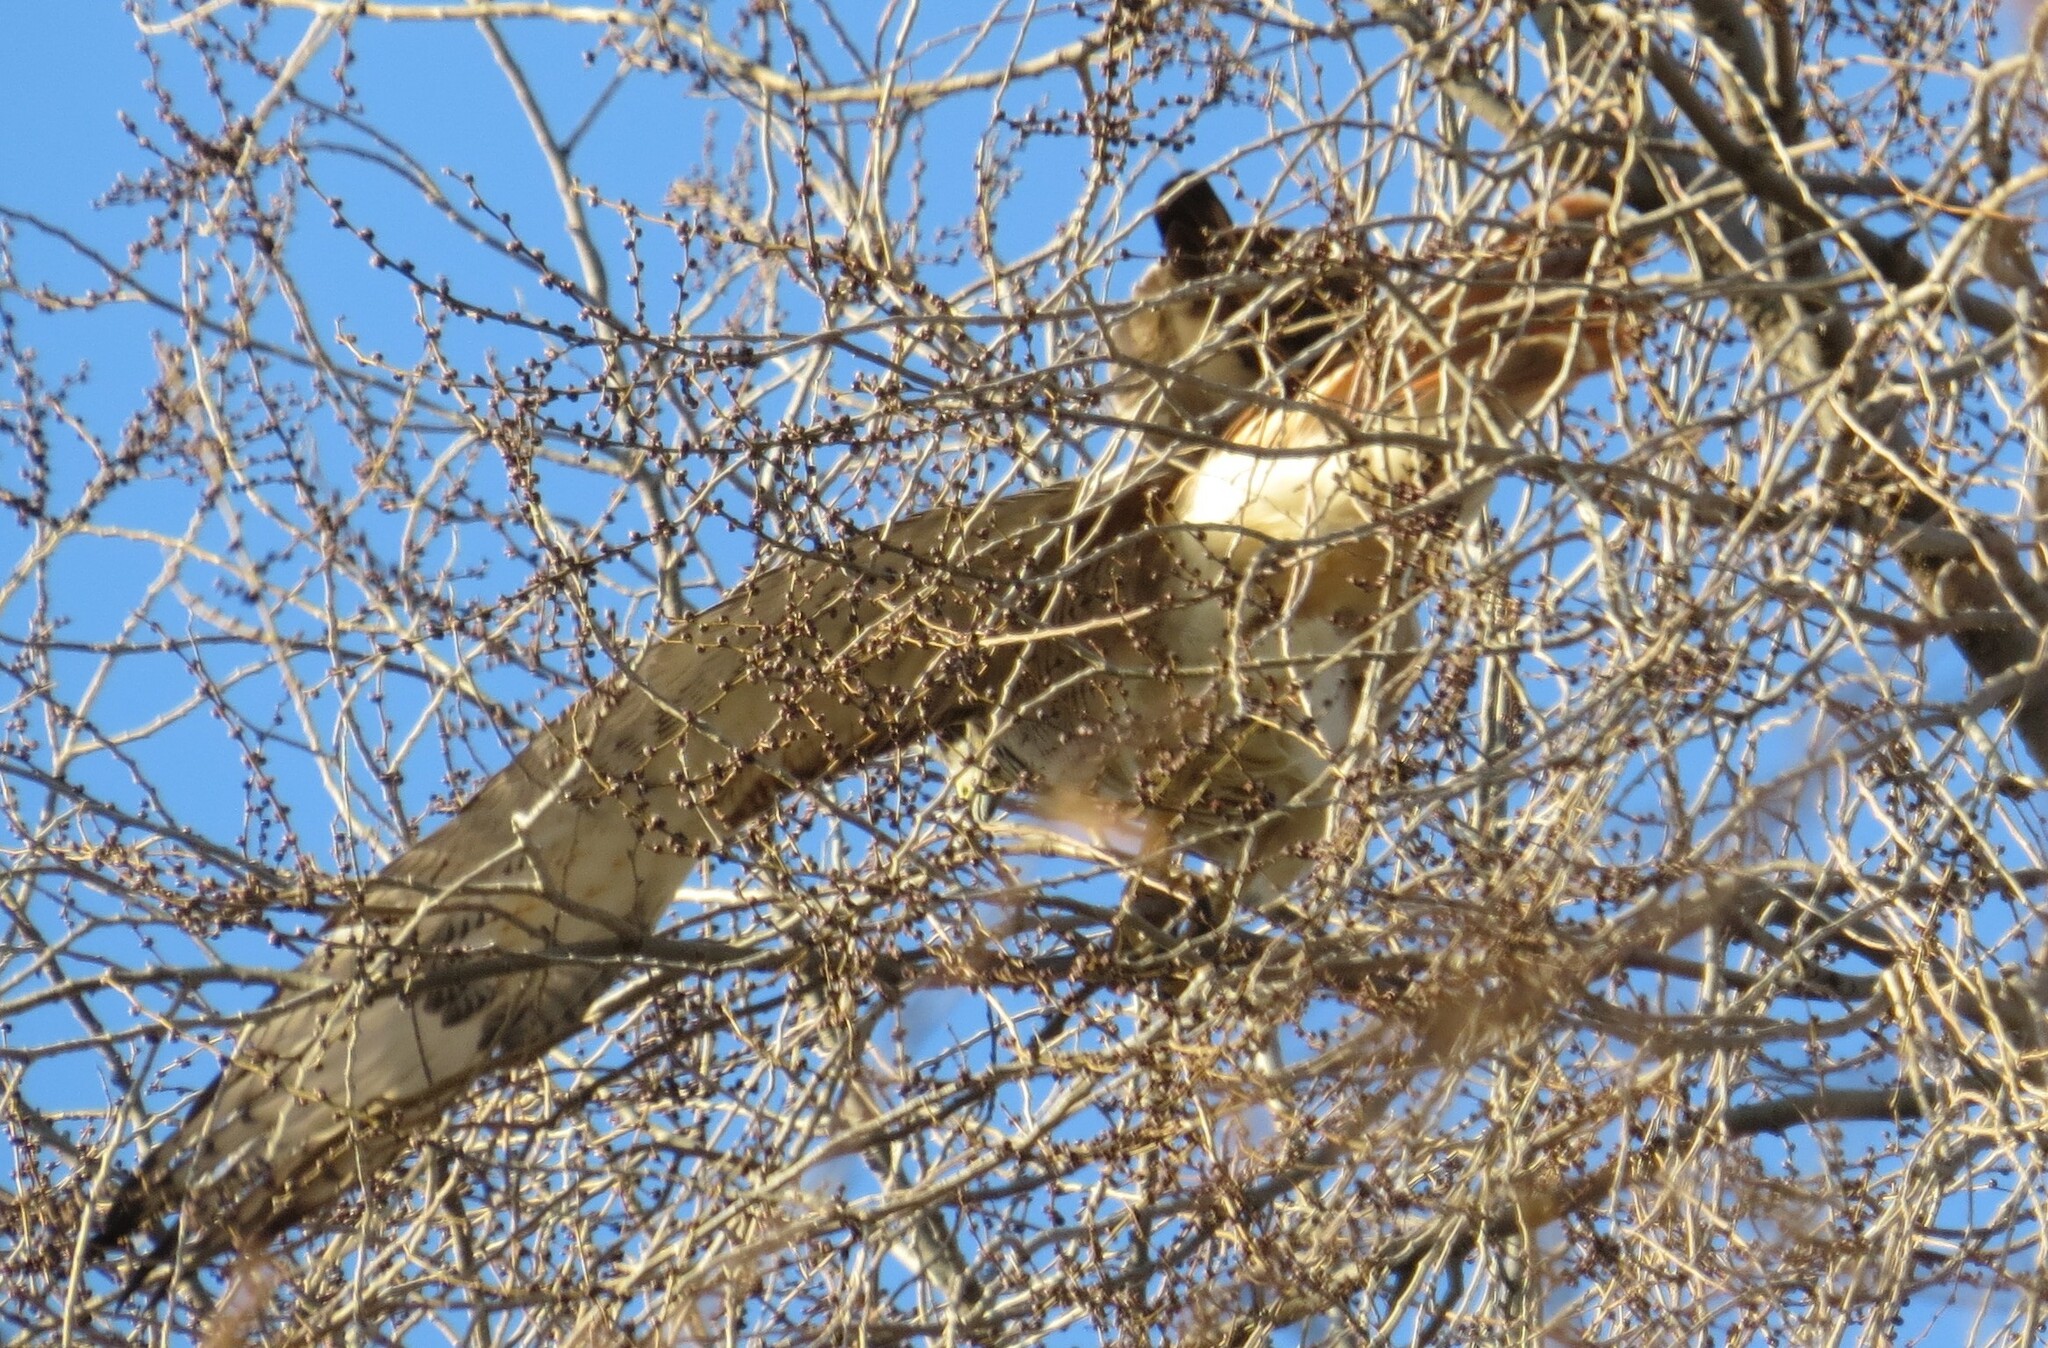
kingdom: Animalia
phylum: Chordata
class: Aves
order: Accipitriformes
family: Accipitridae
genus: Buteo
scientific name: Buteo jamaicensis
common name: Red-tailed hawk
